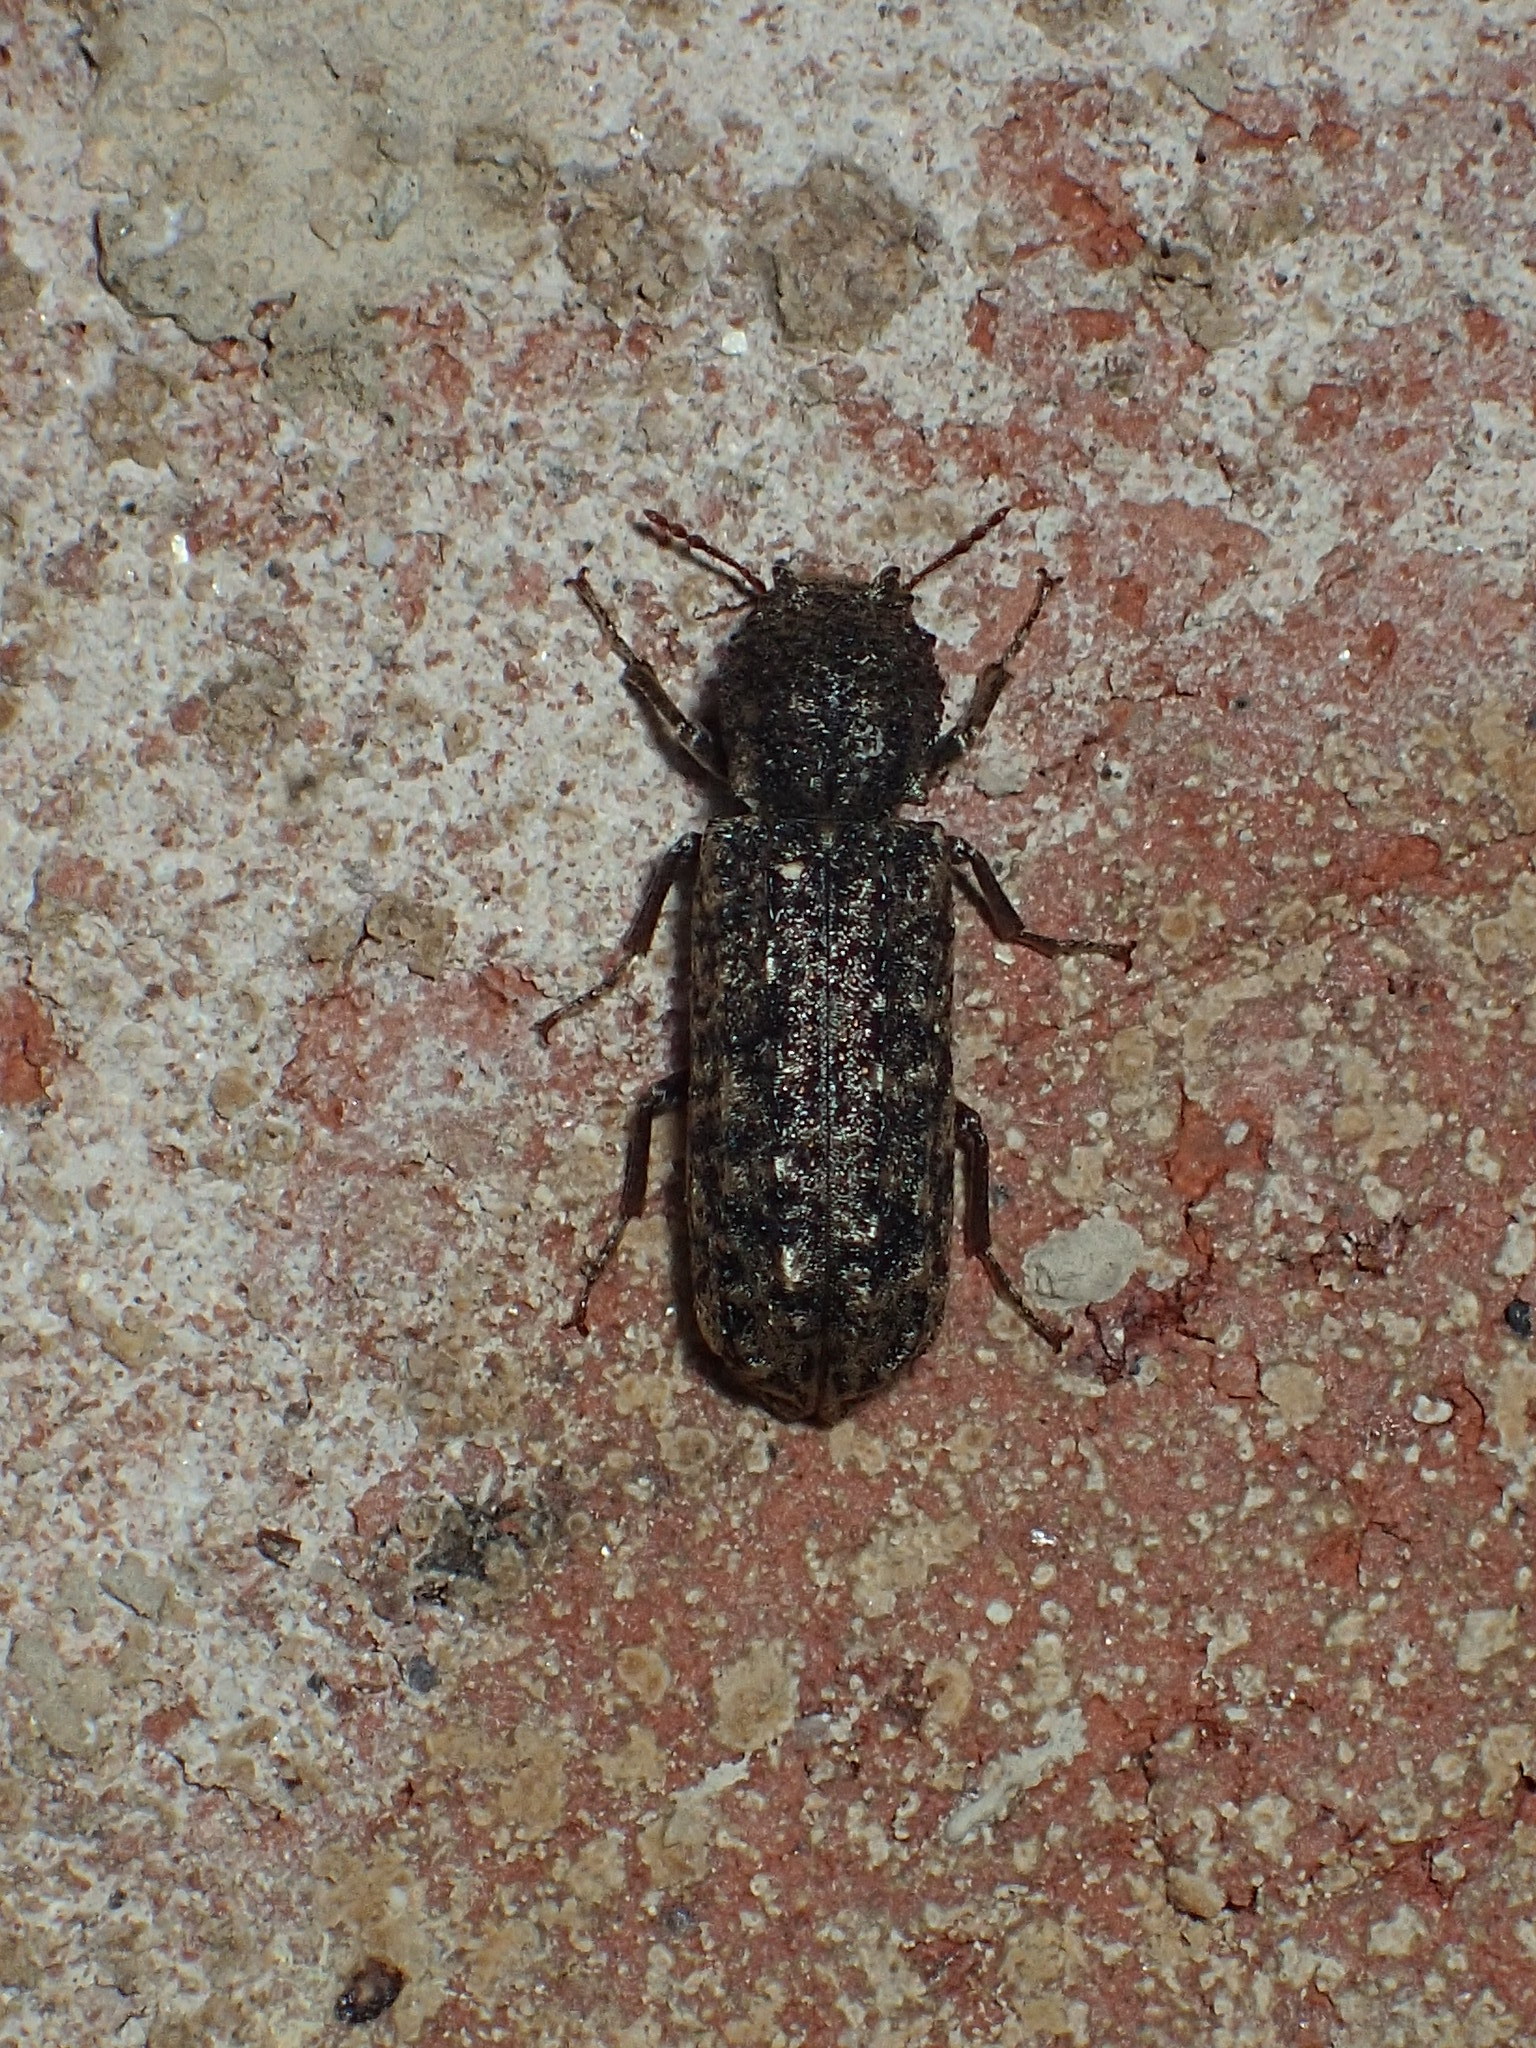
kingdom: Animalia
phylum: Arthropoda
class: Insecta
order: Coleoptera
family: Bostrichidae
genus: Lichenophanes
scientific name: Lichenophanes bicornis
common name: Two-horned powder-post beetle
